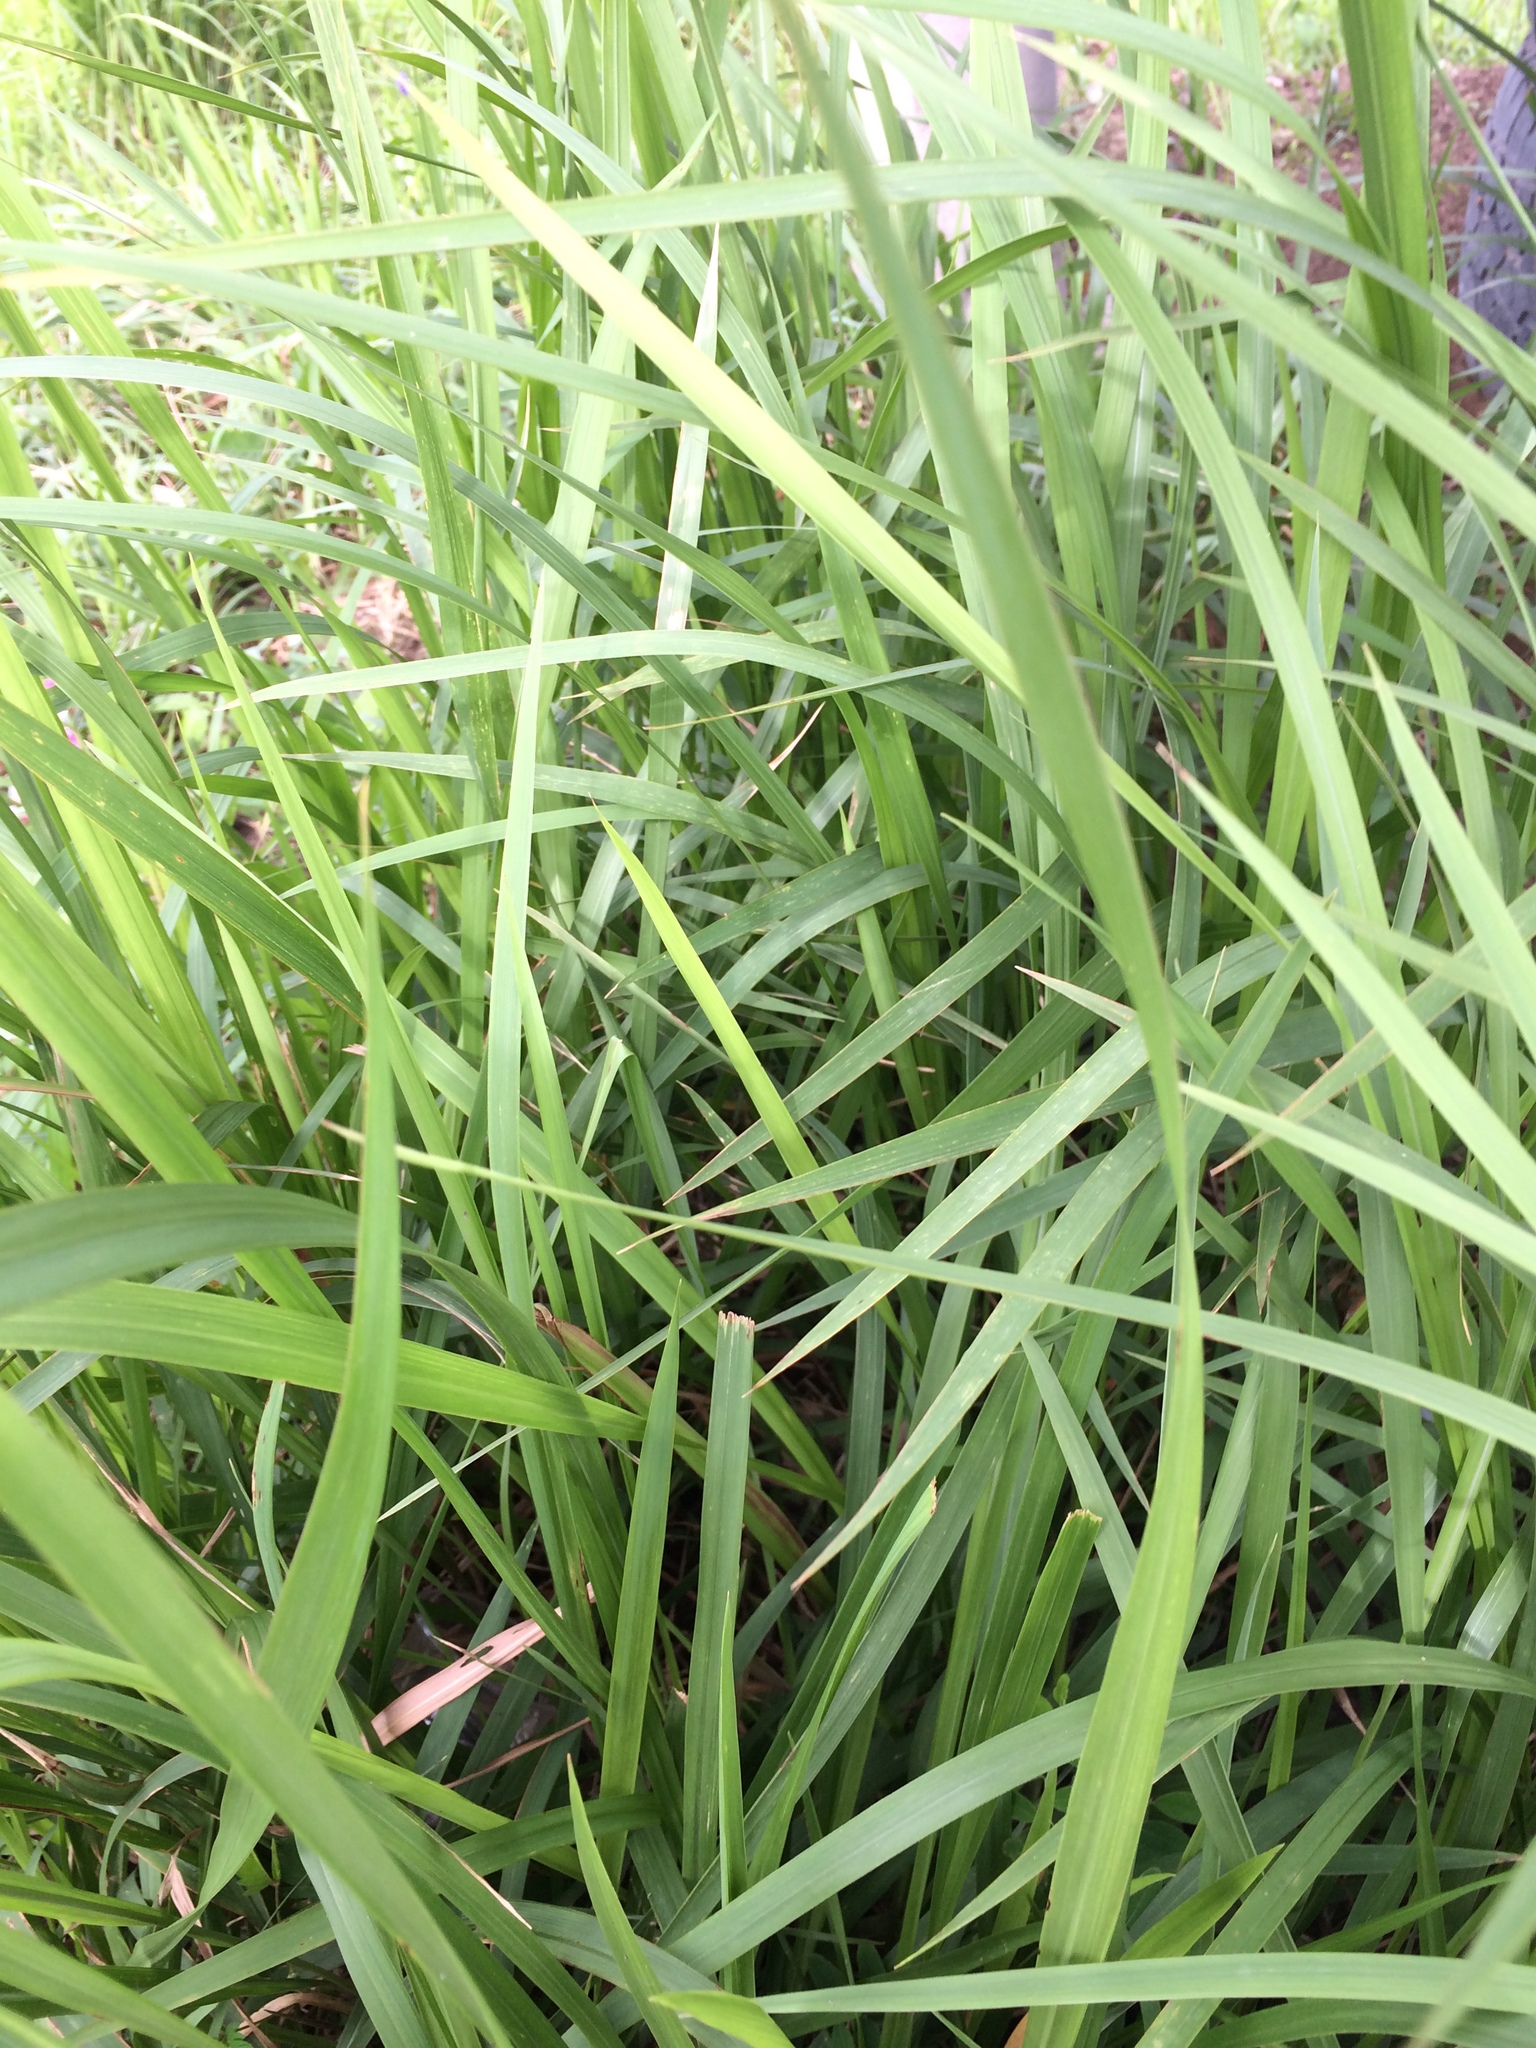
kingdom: Plantae
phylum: Tracheophyta
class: Liliopsida
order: Poales
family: Poaceae
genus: Imperata
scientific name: Imperata cylindrica
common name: Cogongrass
